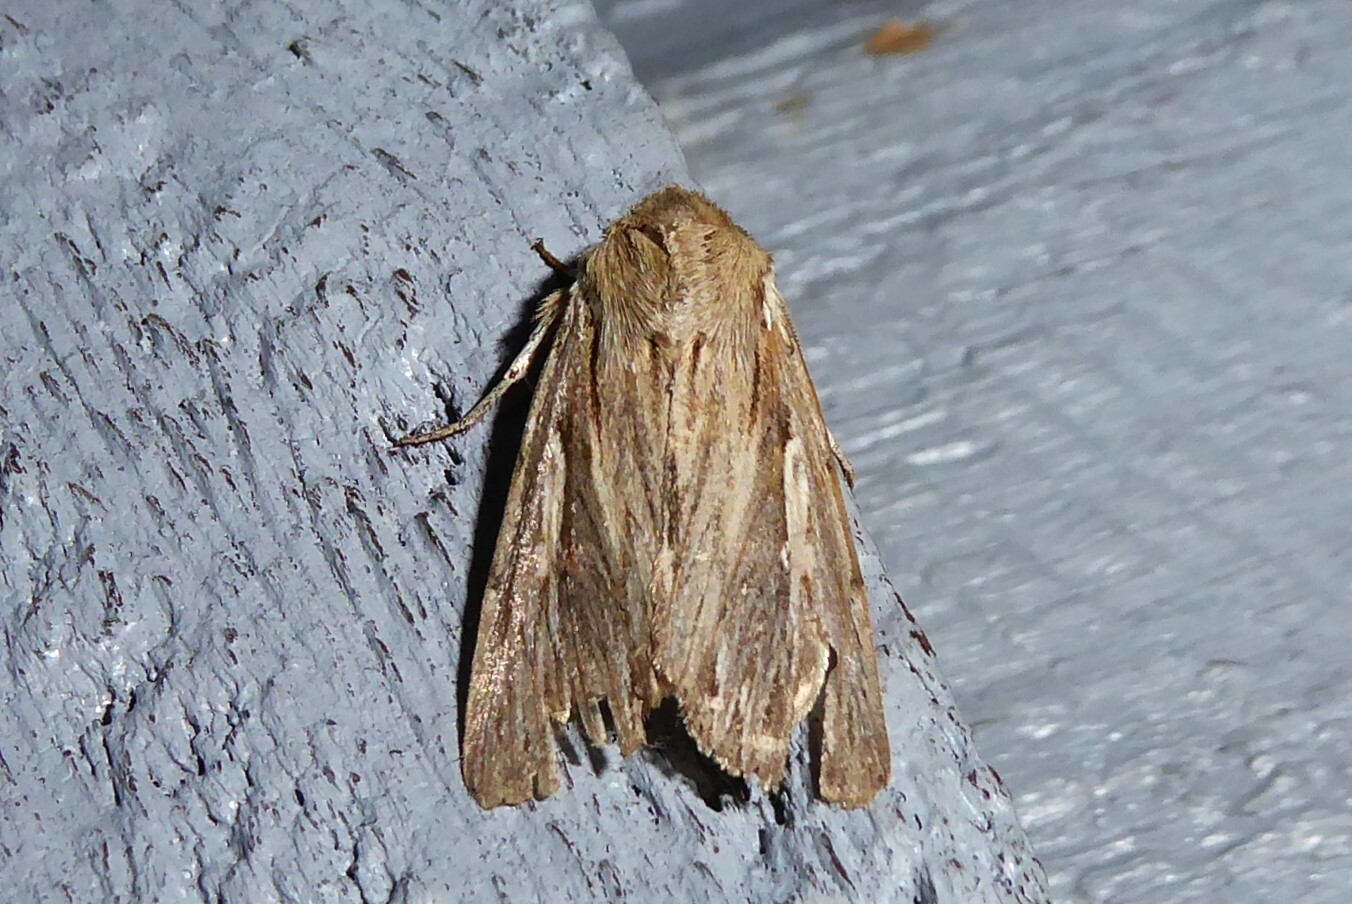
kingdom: Animalia
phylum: Arthropoda
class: Insecta
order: Lepidoptera
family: Noctuidae
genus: Persectania
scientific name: Persectania aversa
